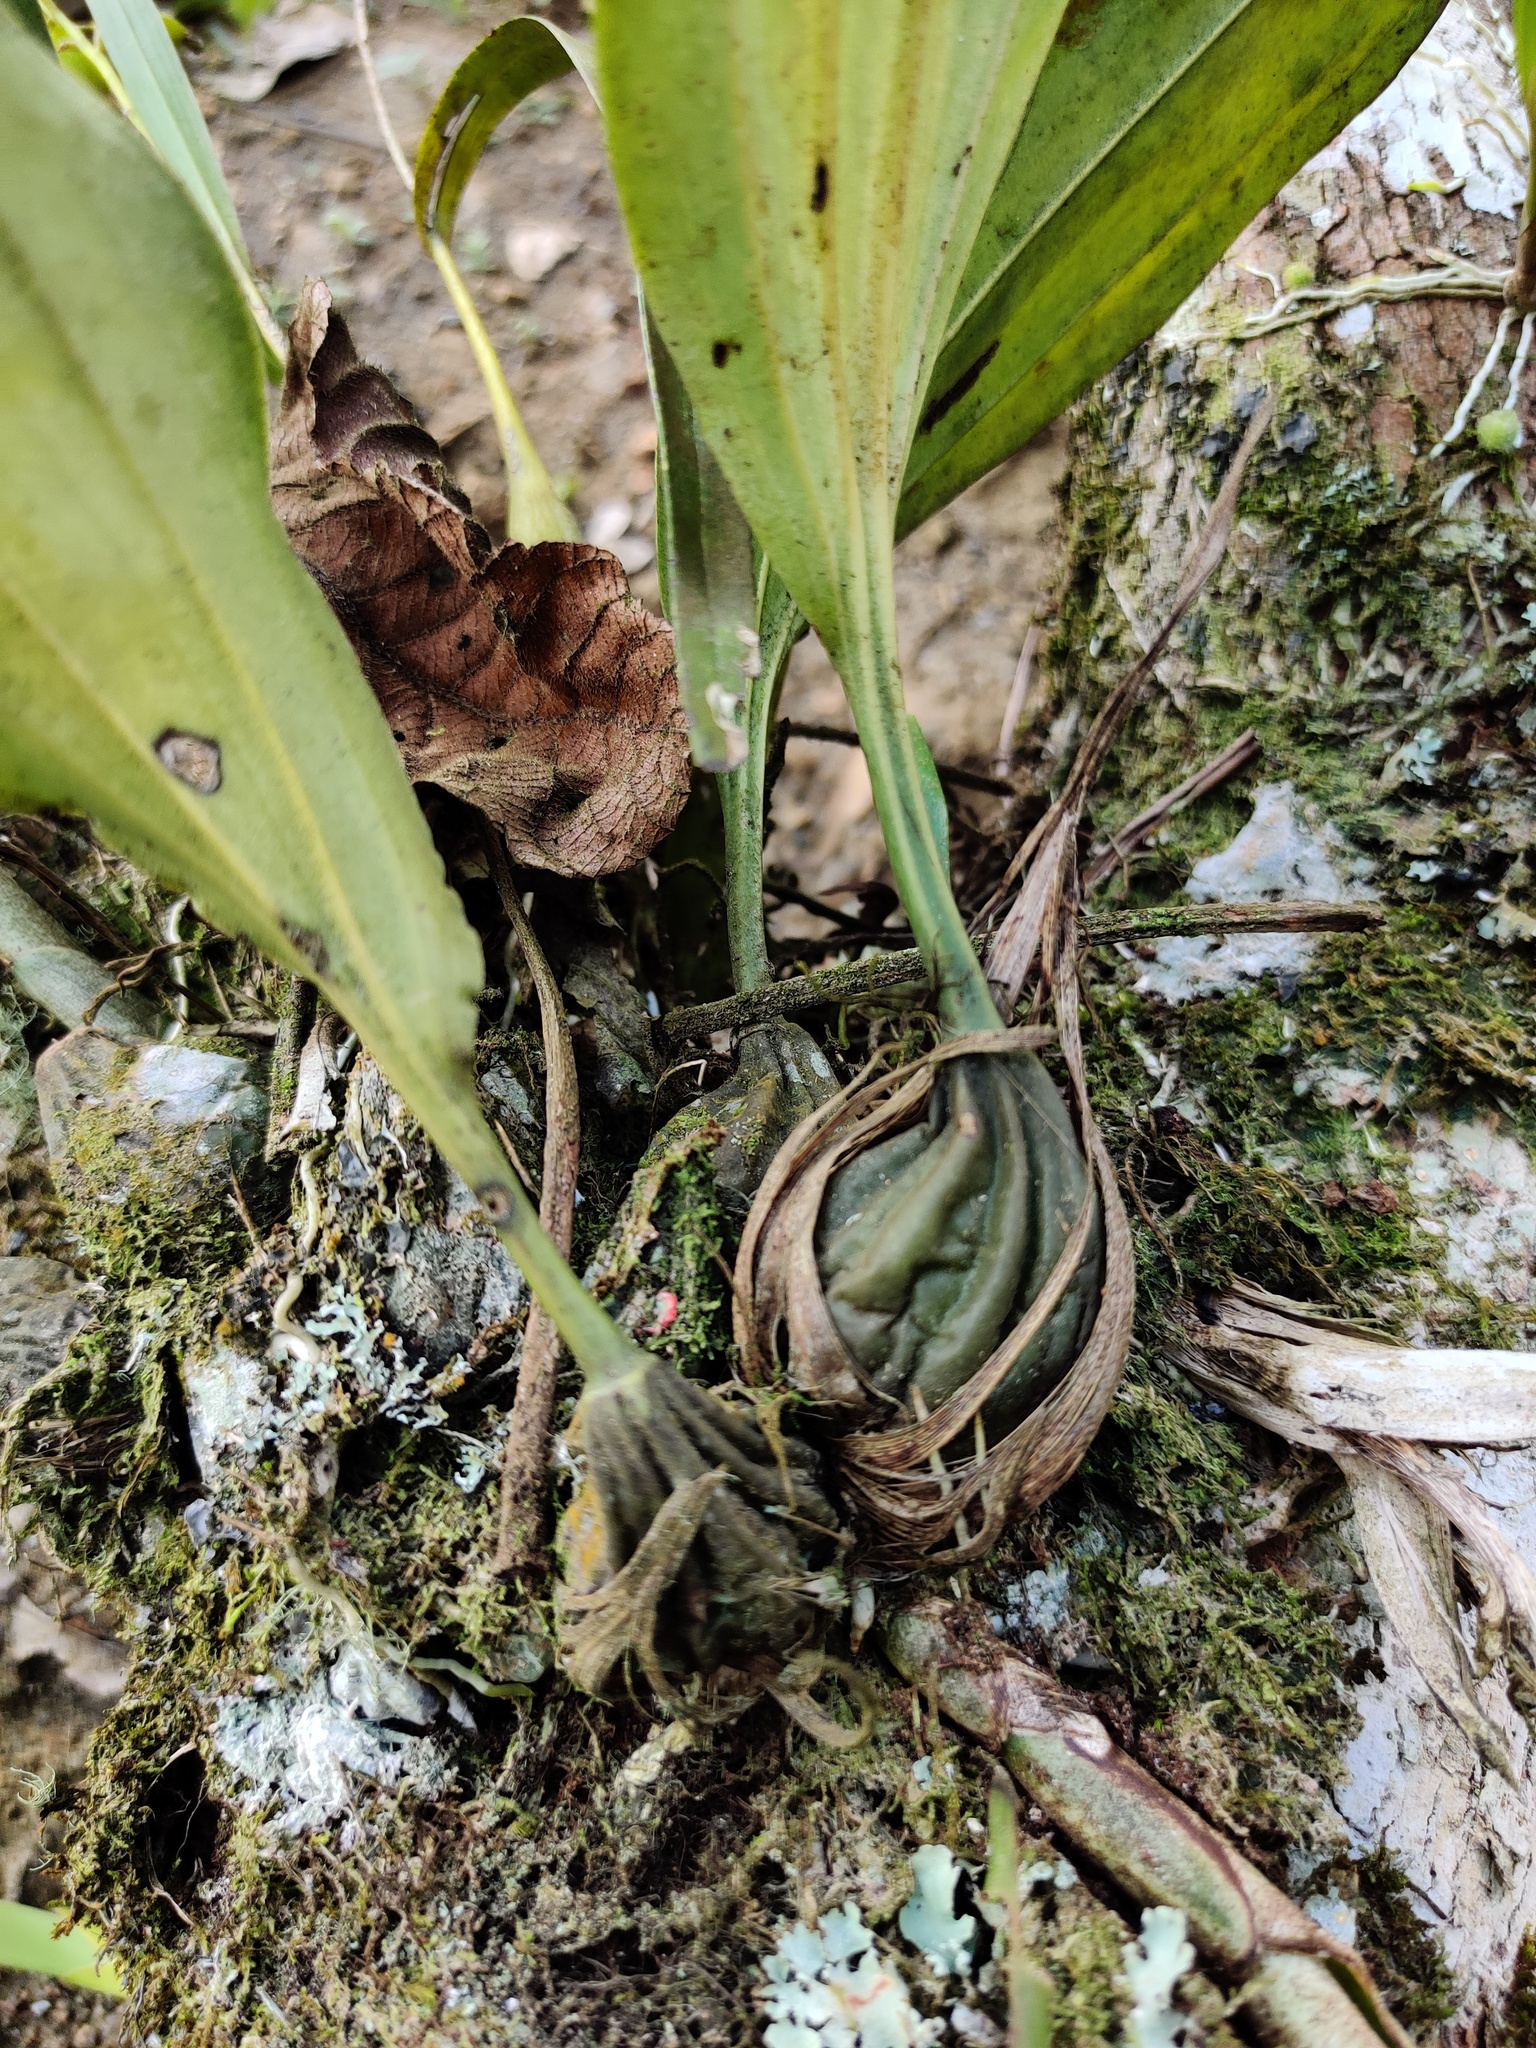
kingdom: Plantae
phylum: Tracheophyta
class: Liliopsida
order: Asparagales
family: Orchidaceae
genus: Stanhopea
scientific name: Stanhopea graveolens
